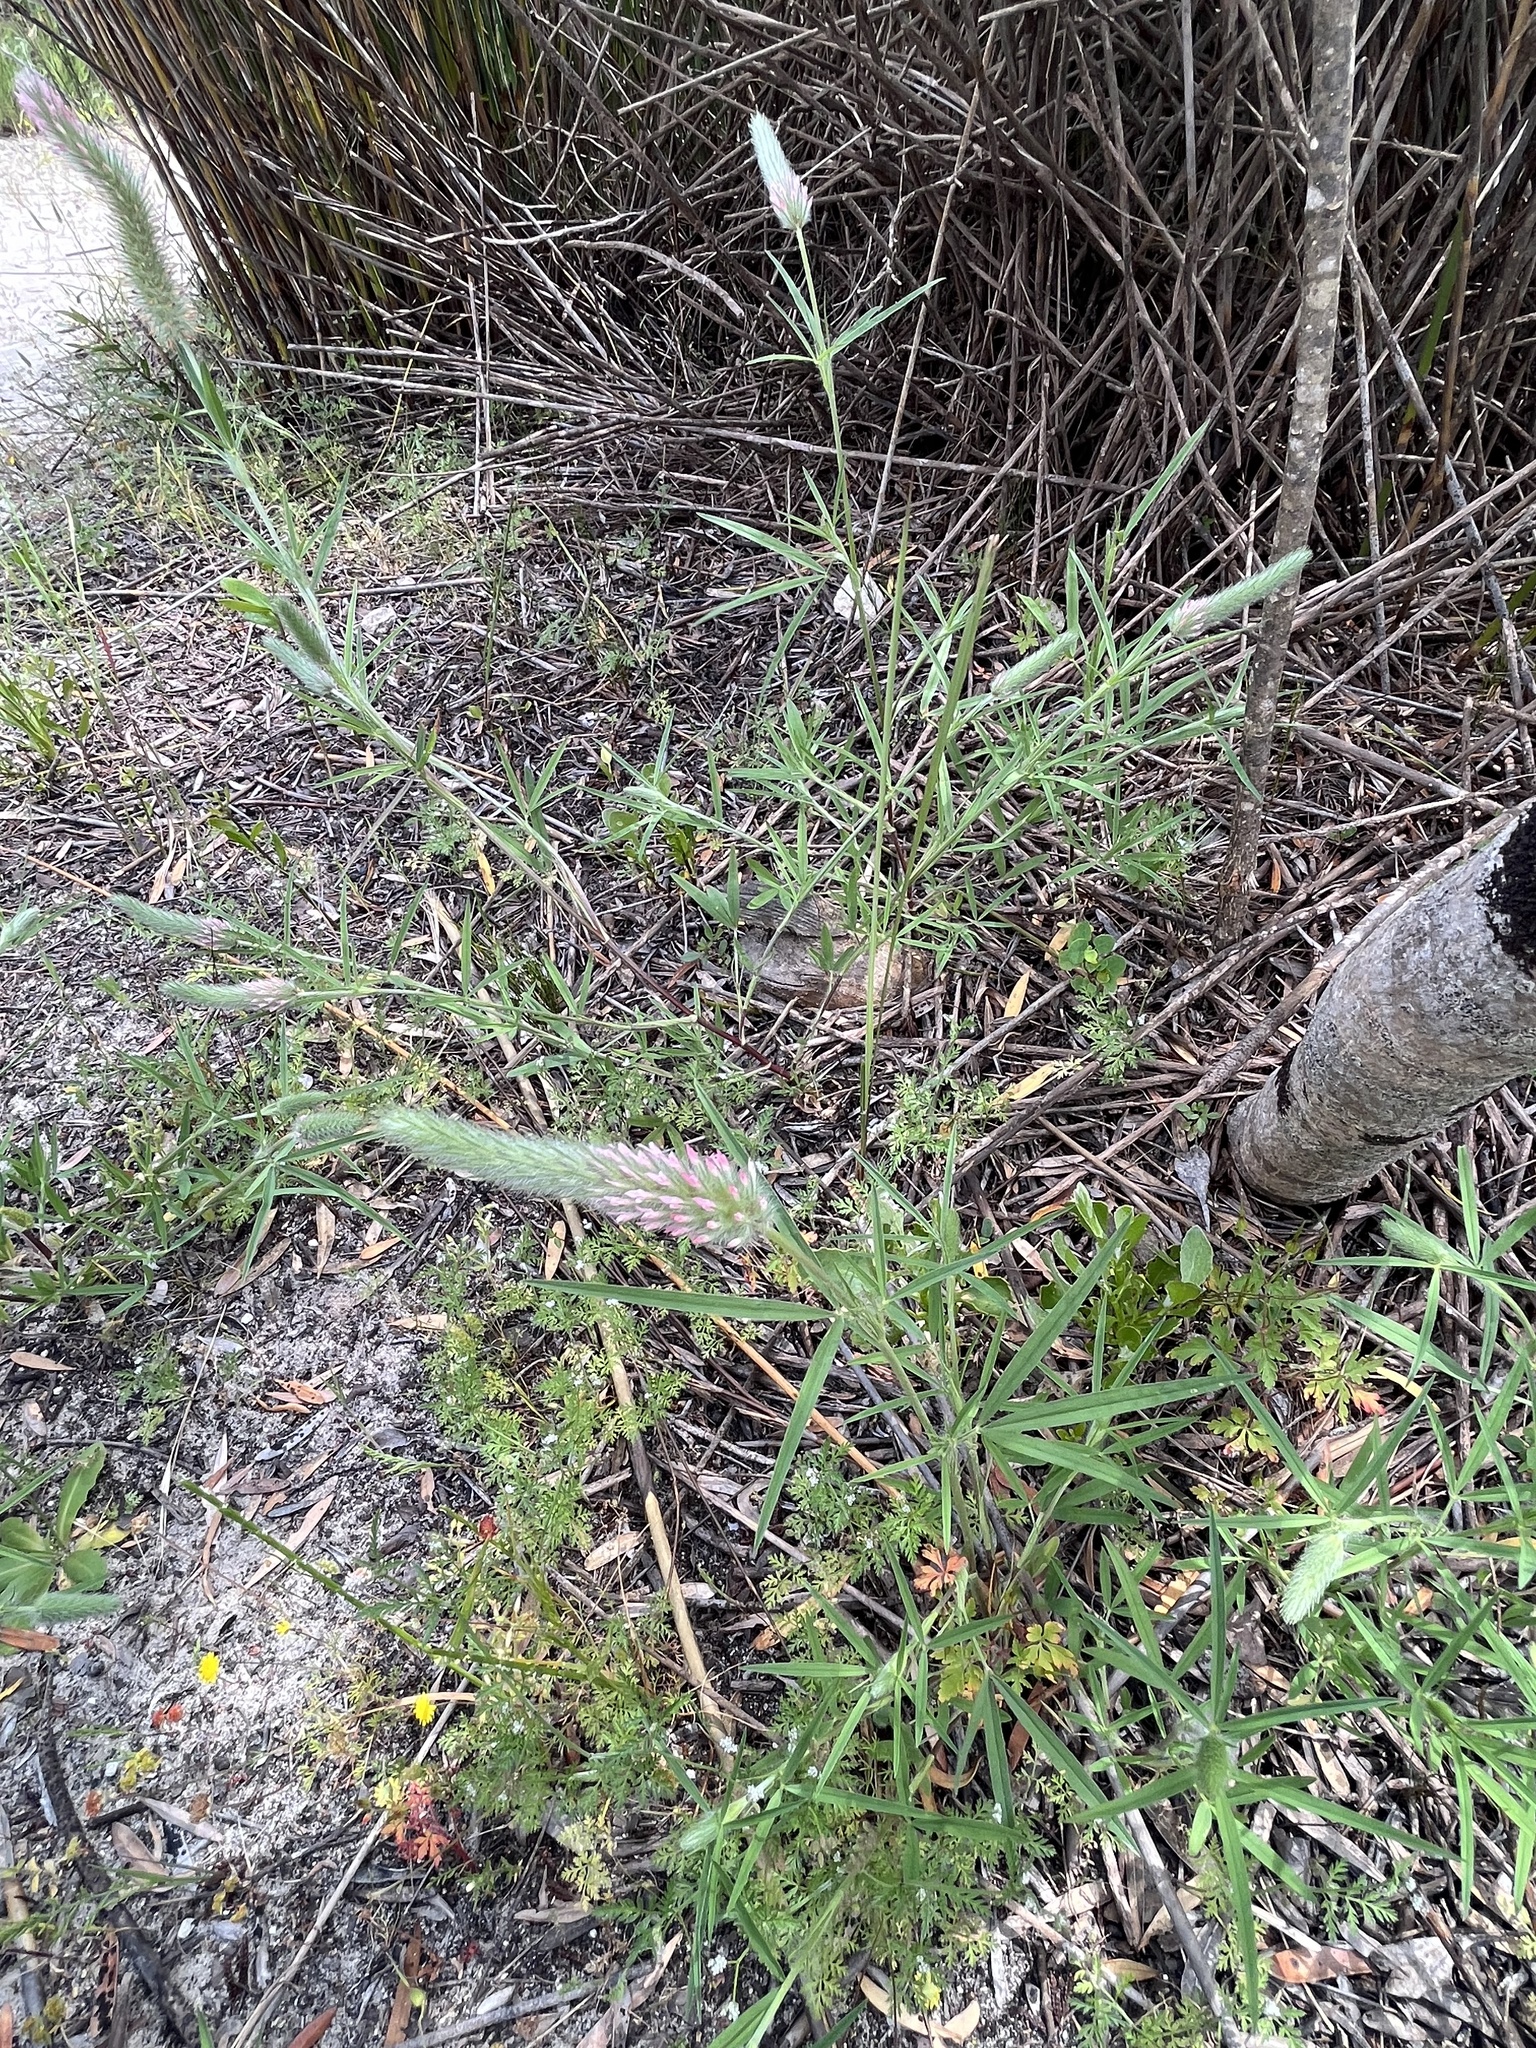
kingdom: Plantae
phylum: Tracheophyta
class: Magnoliopsida
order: Fabales
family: Fabaceae
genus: Trifolium
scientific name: Trifolium angustifolium
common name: Narrow clover
